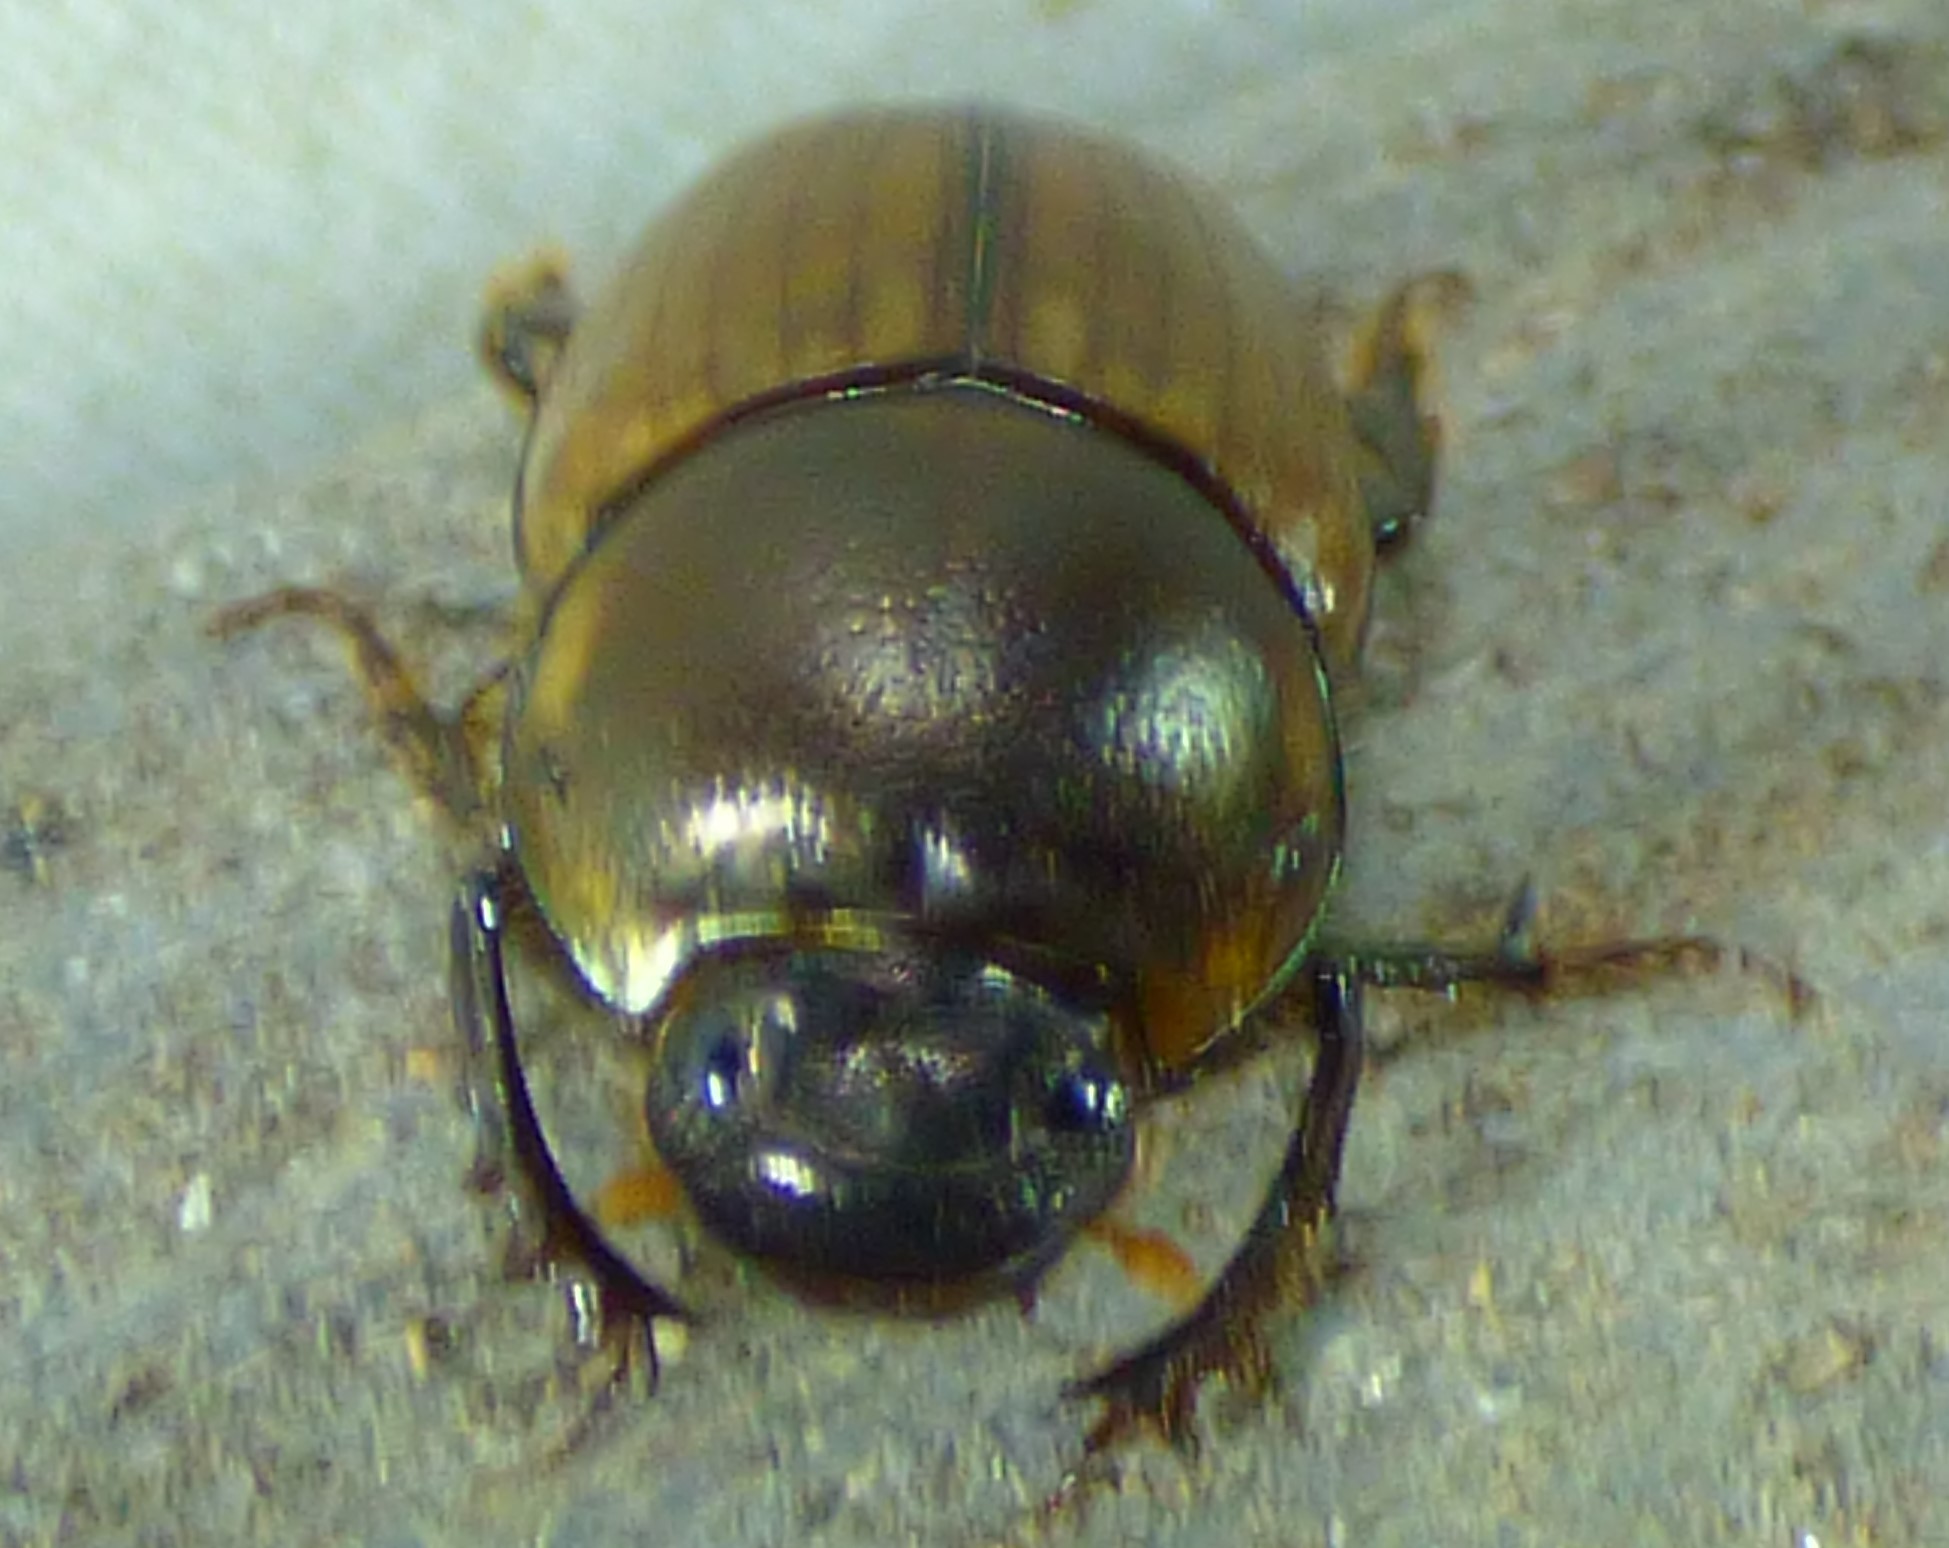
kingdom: Animalia
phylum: Arthropoda
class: Insecta
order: Coleoptera
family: Scarabaeidae
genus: Digitonthophagus
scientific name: Digitonthophagus gazella
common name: Brown dung beetle
